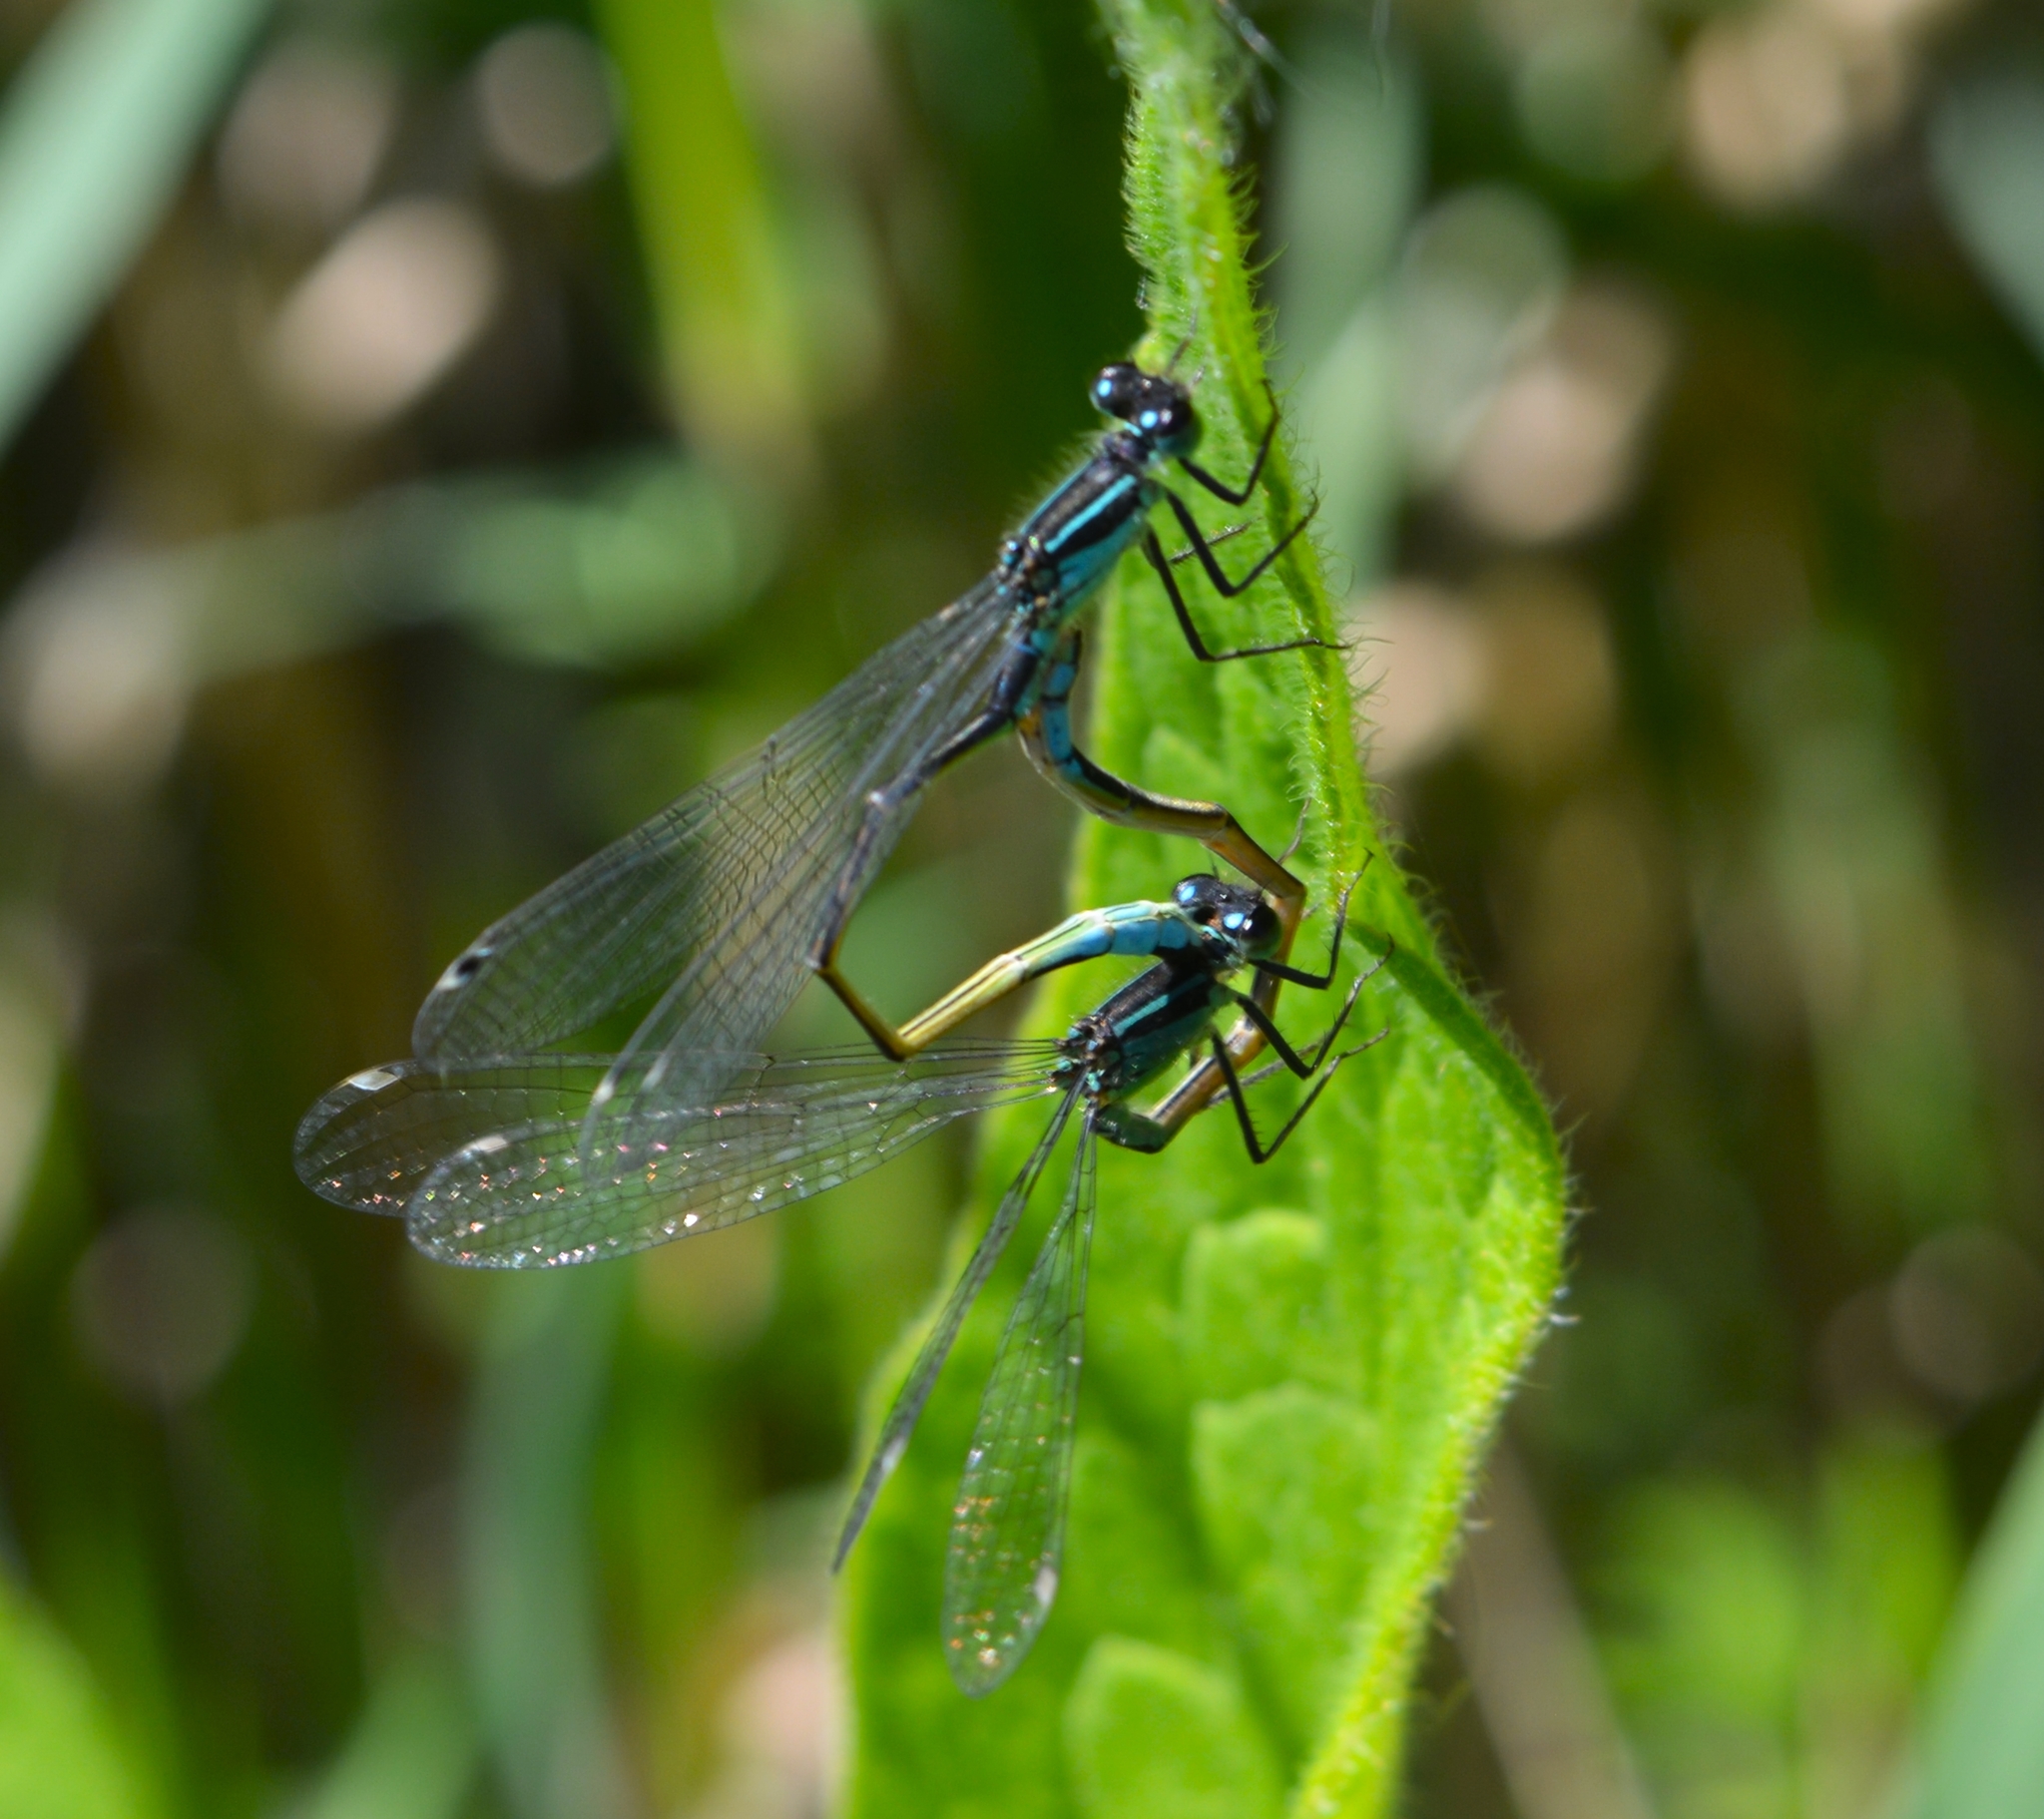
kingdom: Animalia
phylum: Arthropoda
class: Insecta
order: Odonata
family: Coenagrionidae
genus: Ischnura
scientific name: Ischnura elegans
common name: Blue-tailed damselfly
